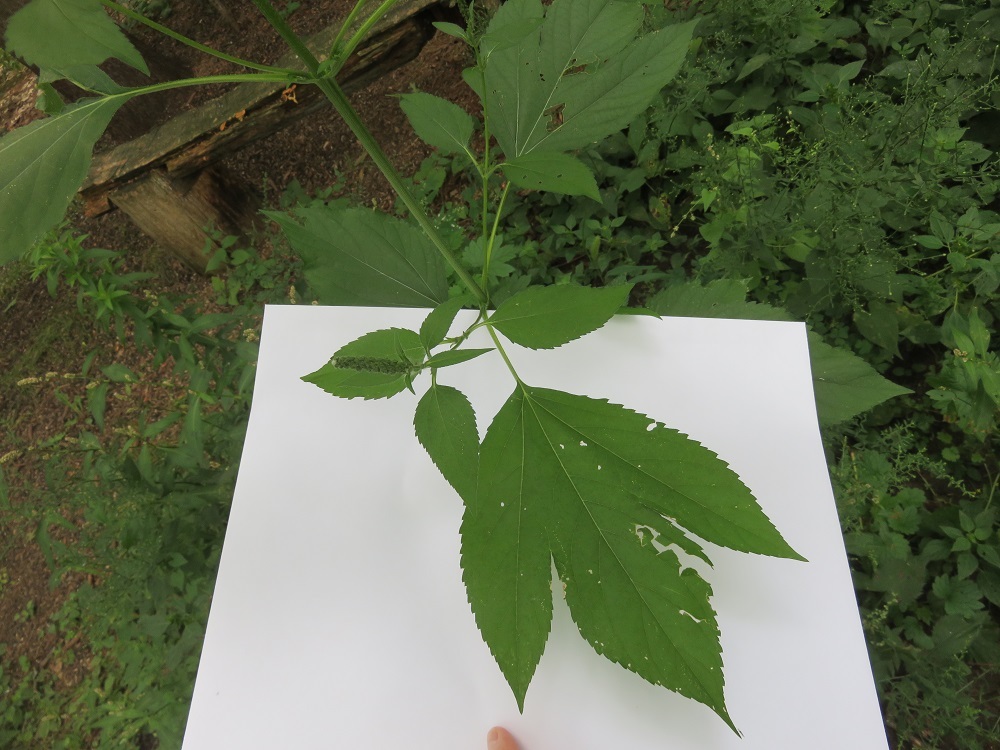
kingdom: Plantae
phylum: Tracheophyta
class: Magnoliopsida
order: Asterales
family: Asteraceae
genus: Ambrosia
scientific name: Ambrosia trifida
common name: Giant ragweed
